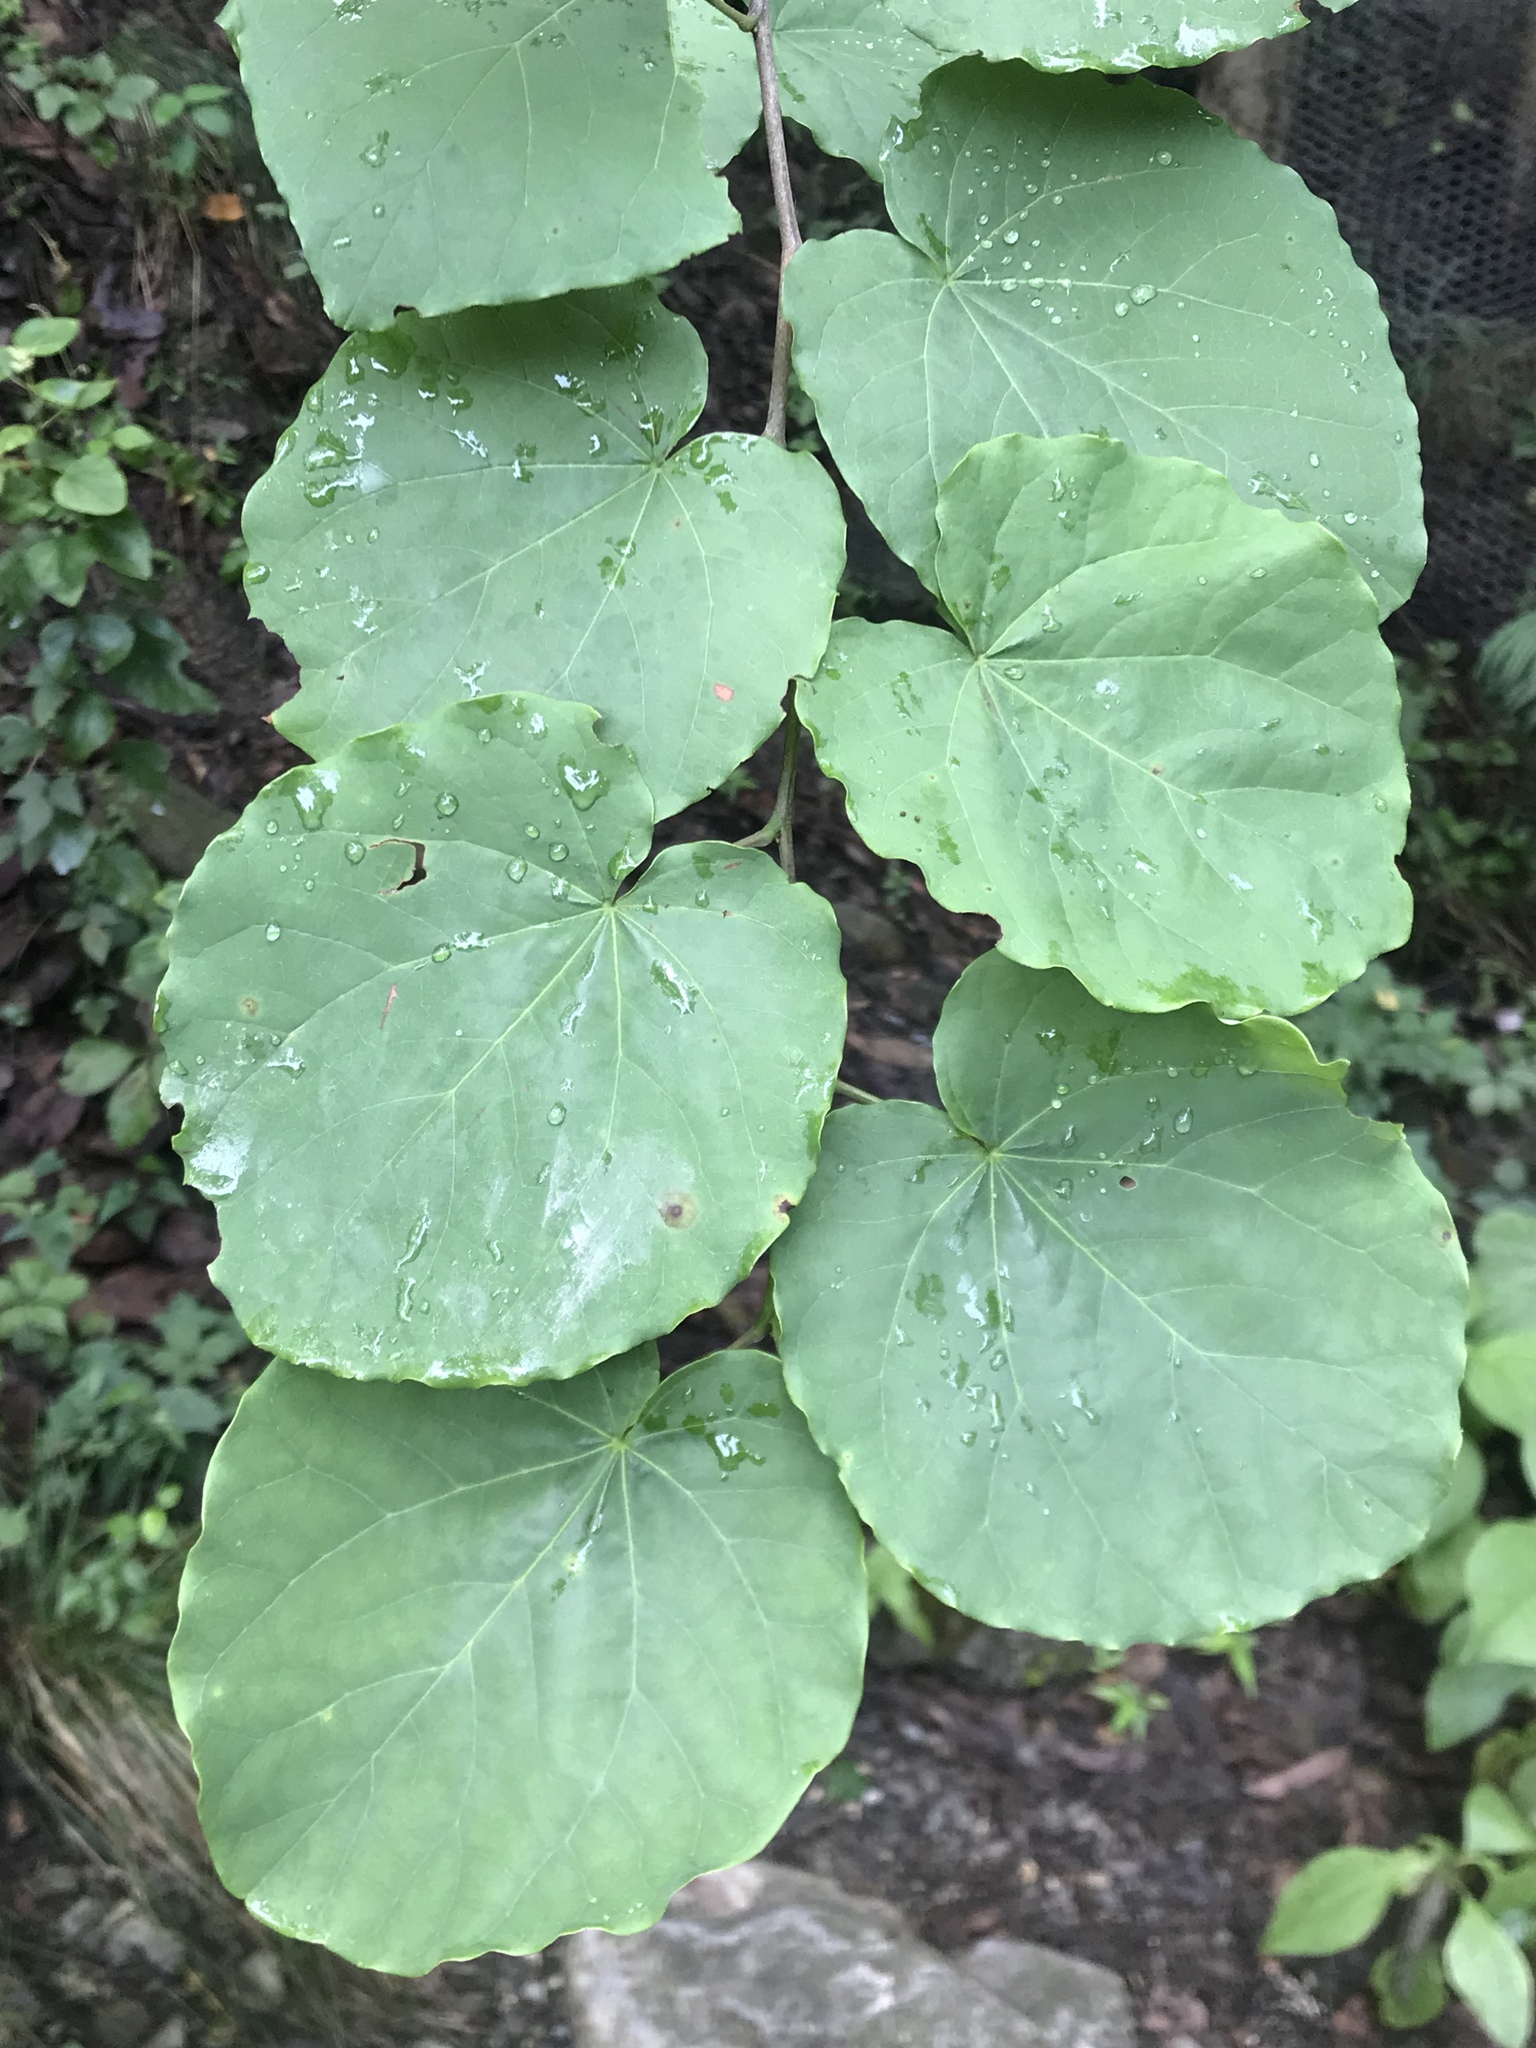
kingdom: Plantae
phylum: Tracheophyta
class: Magnoliopsida
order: Fabales
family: Fabaceae
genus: Cercis
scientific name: Cercis canadensis
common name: Eastern redbud
